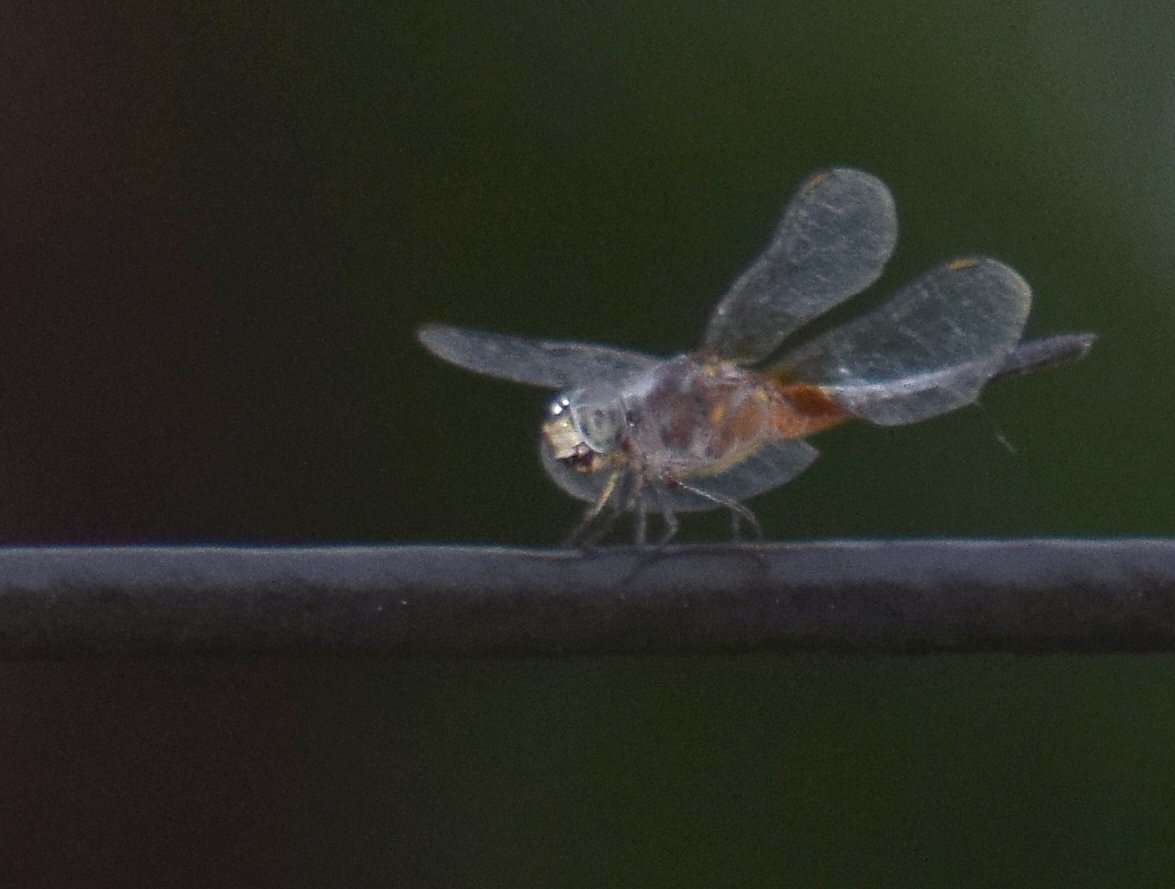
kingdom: Animalia
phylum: Arthropoda
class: Insecta
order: Odonata
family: Libellulidae
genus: Brachydiplax
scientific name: Brachydiplax chalybea
